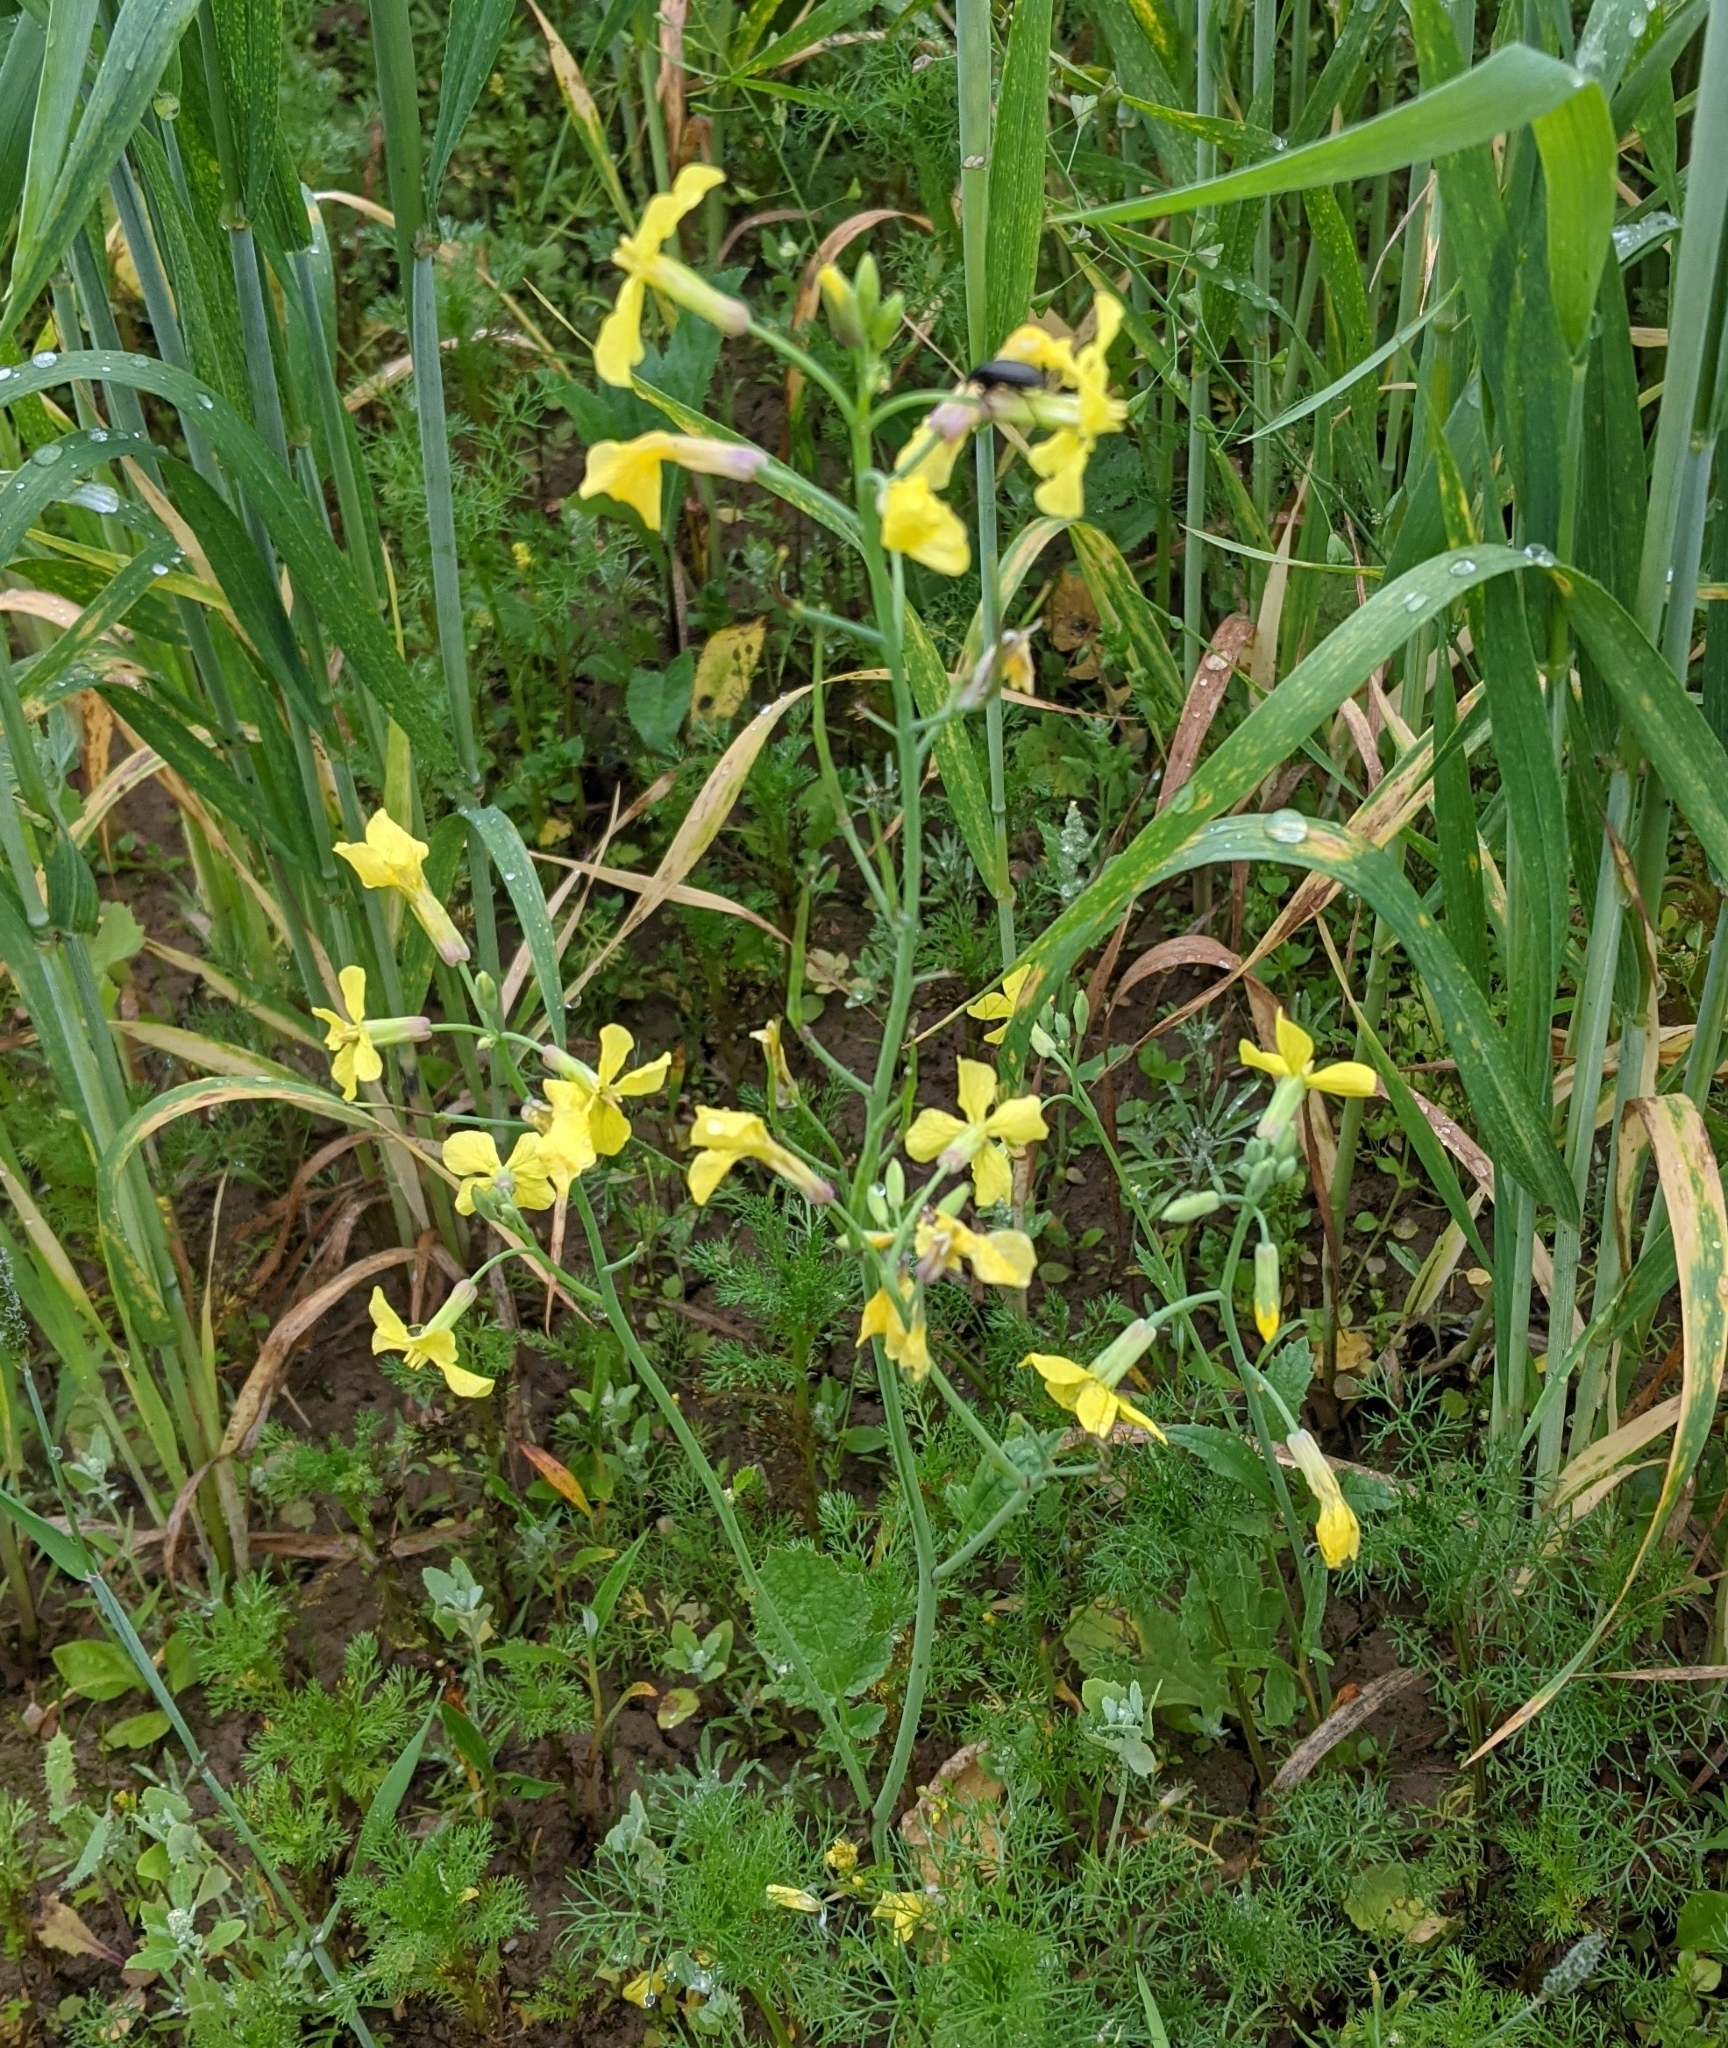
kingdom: Plantae
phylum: Tracheophyta
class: Magnoliopsida
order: Brassicales
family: Brassicaceae
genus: Raphanus
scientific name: Raphanus raphanistrum
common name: Wild radish
